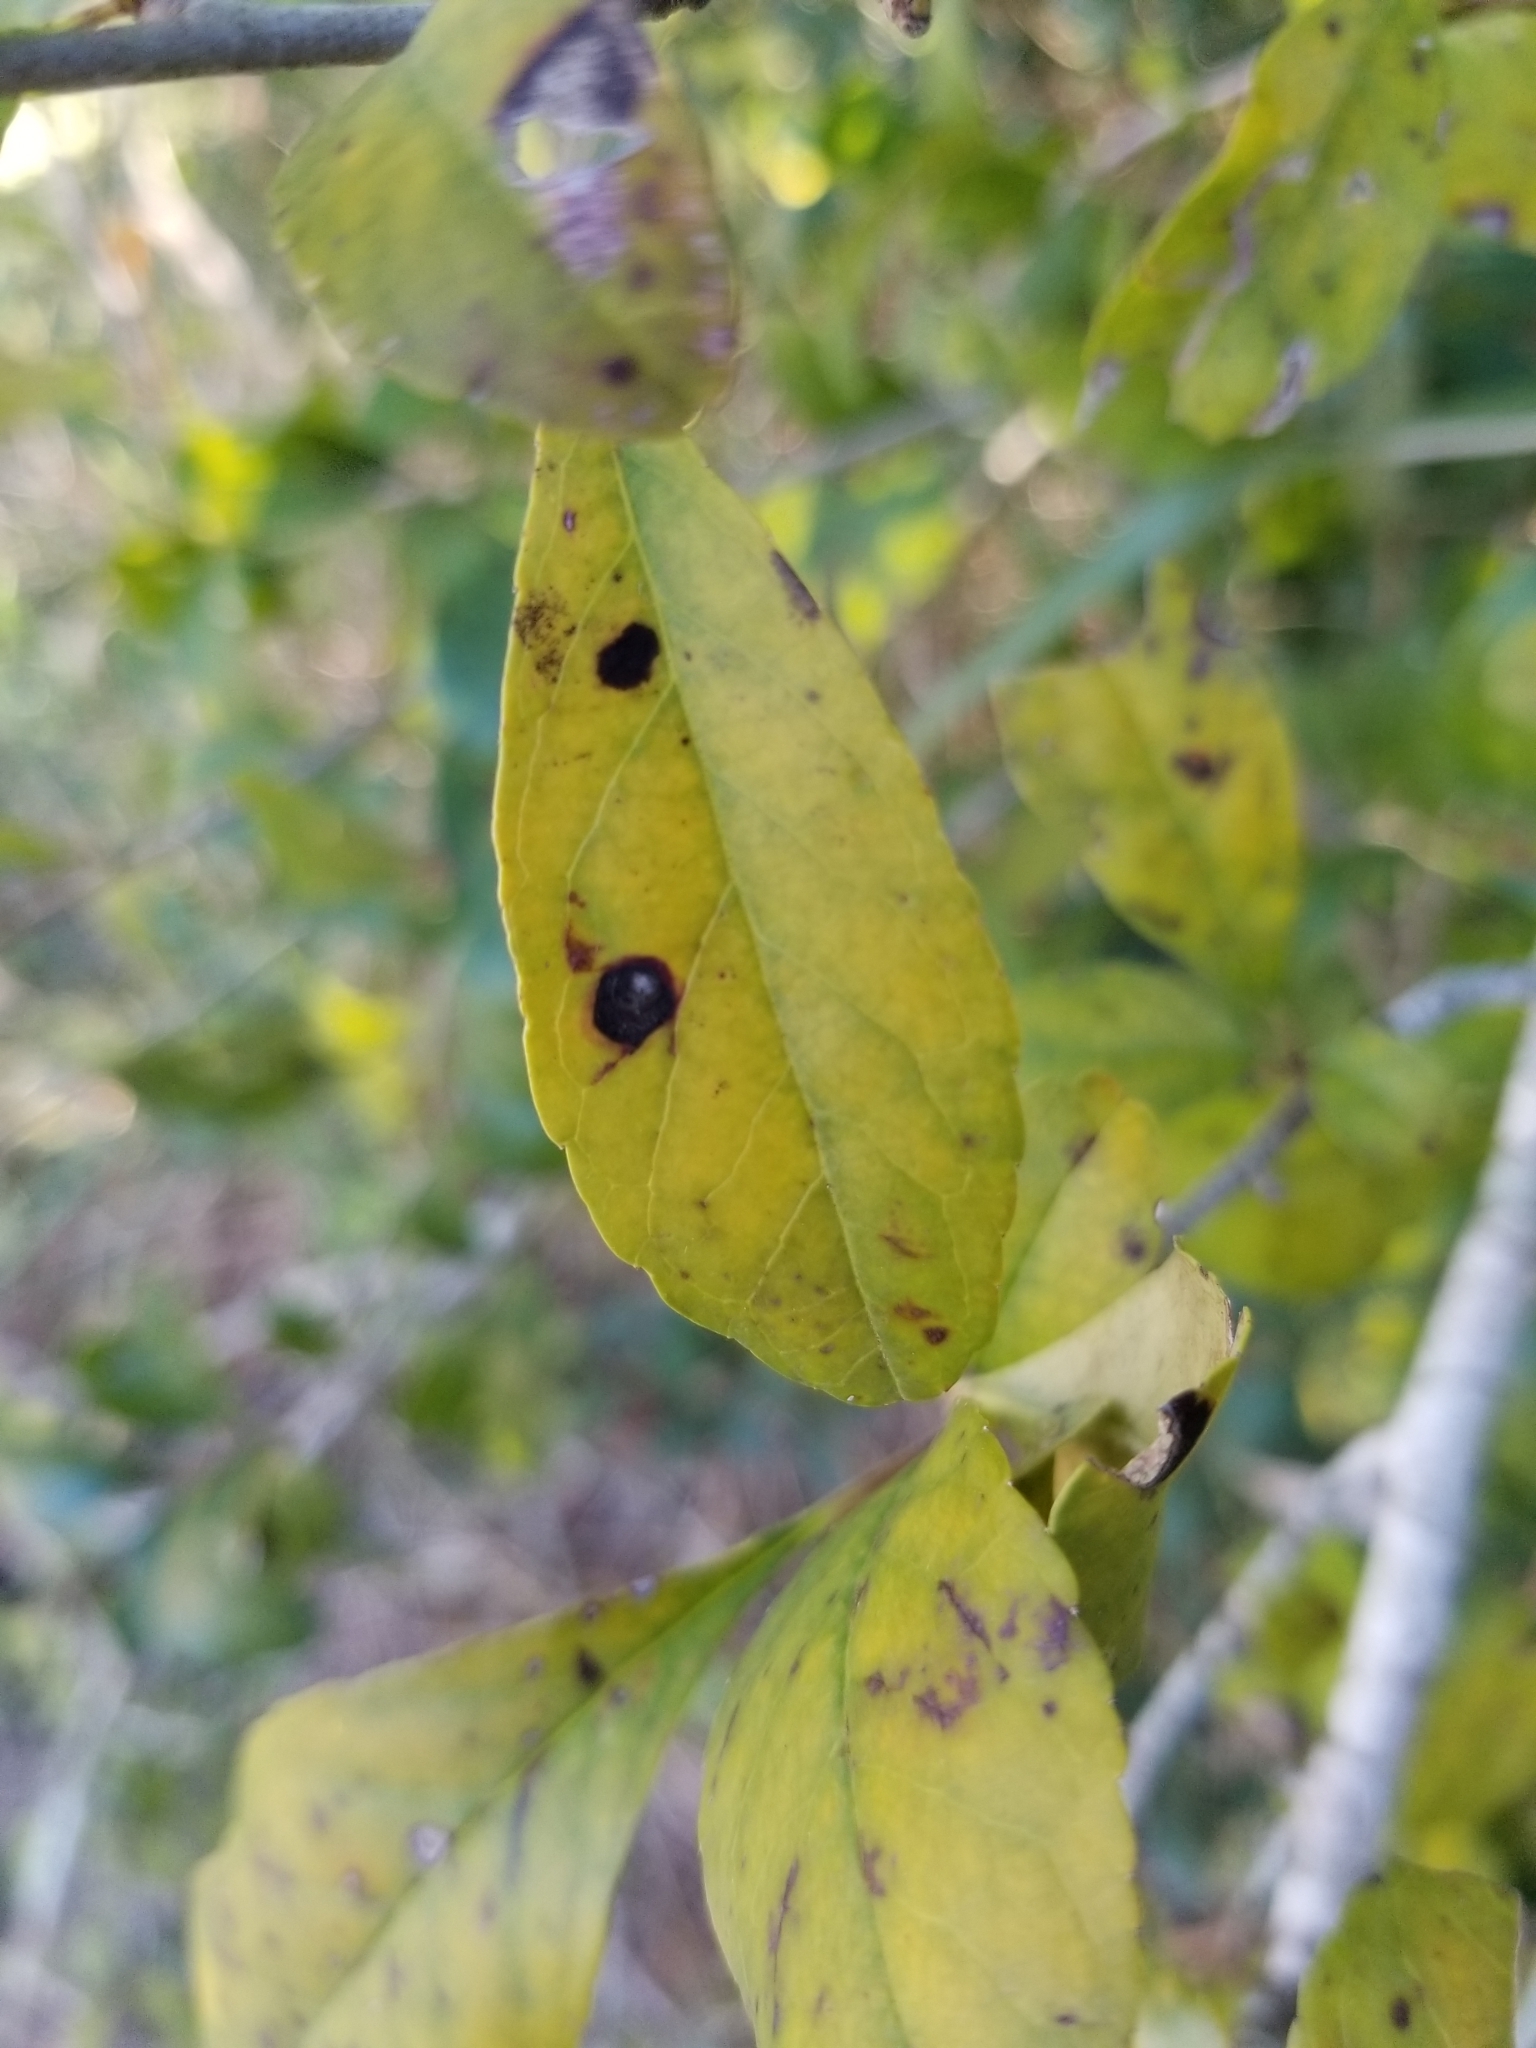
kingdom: Fungi
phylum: Ascomycota
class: Sordariomycetes
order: Hypocreales
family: Nectriaceae
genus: Calonectria
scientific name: Calonectria avesiculata
